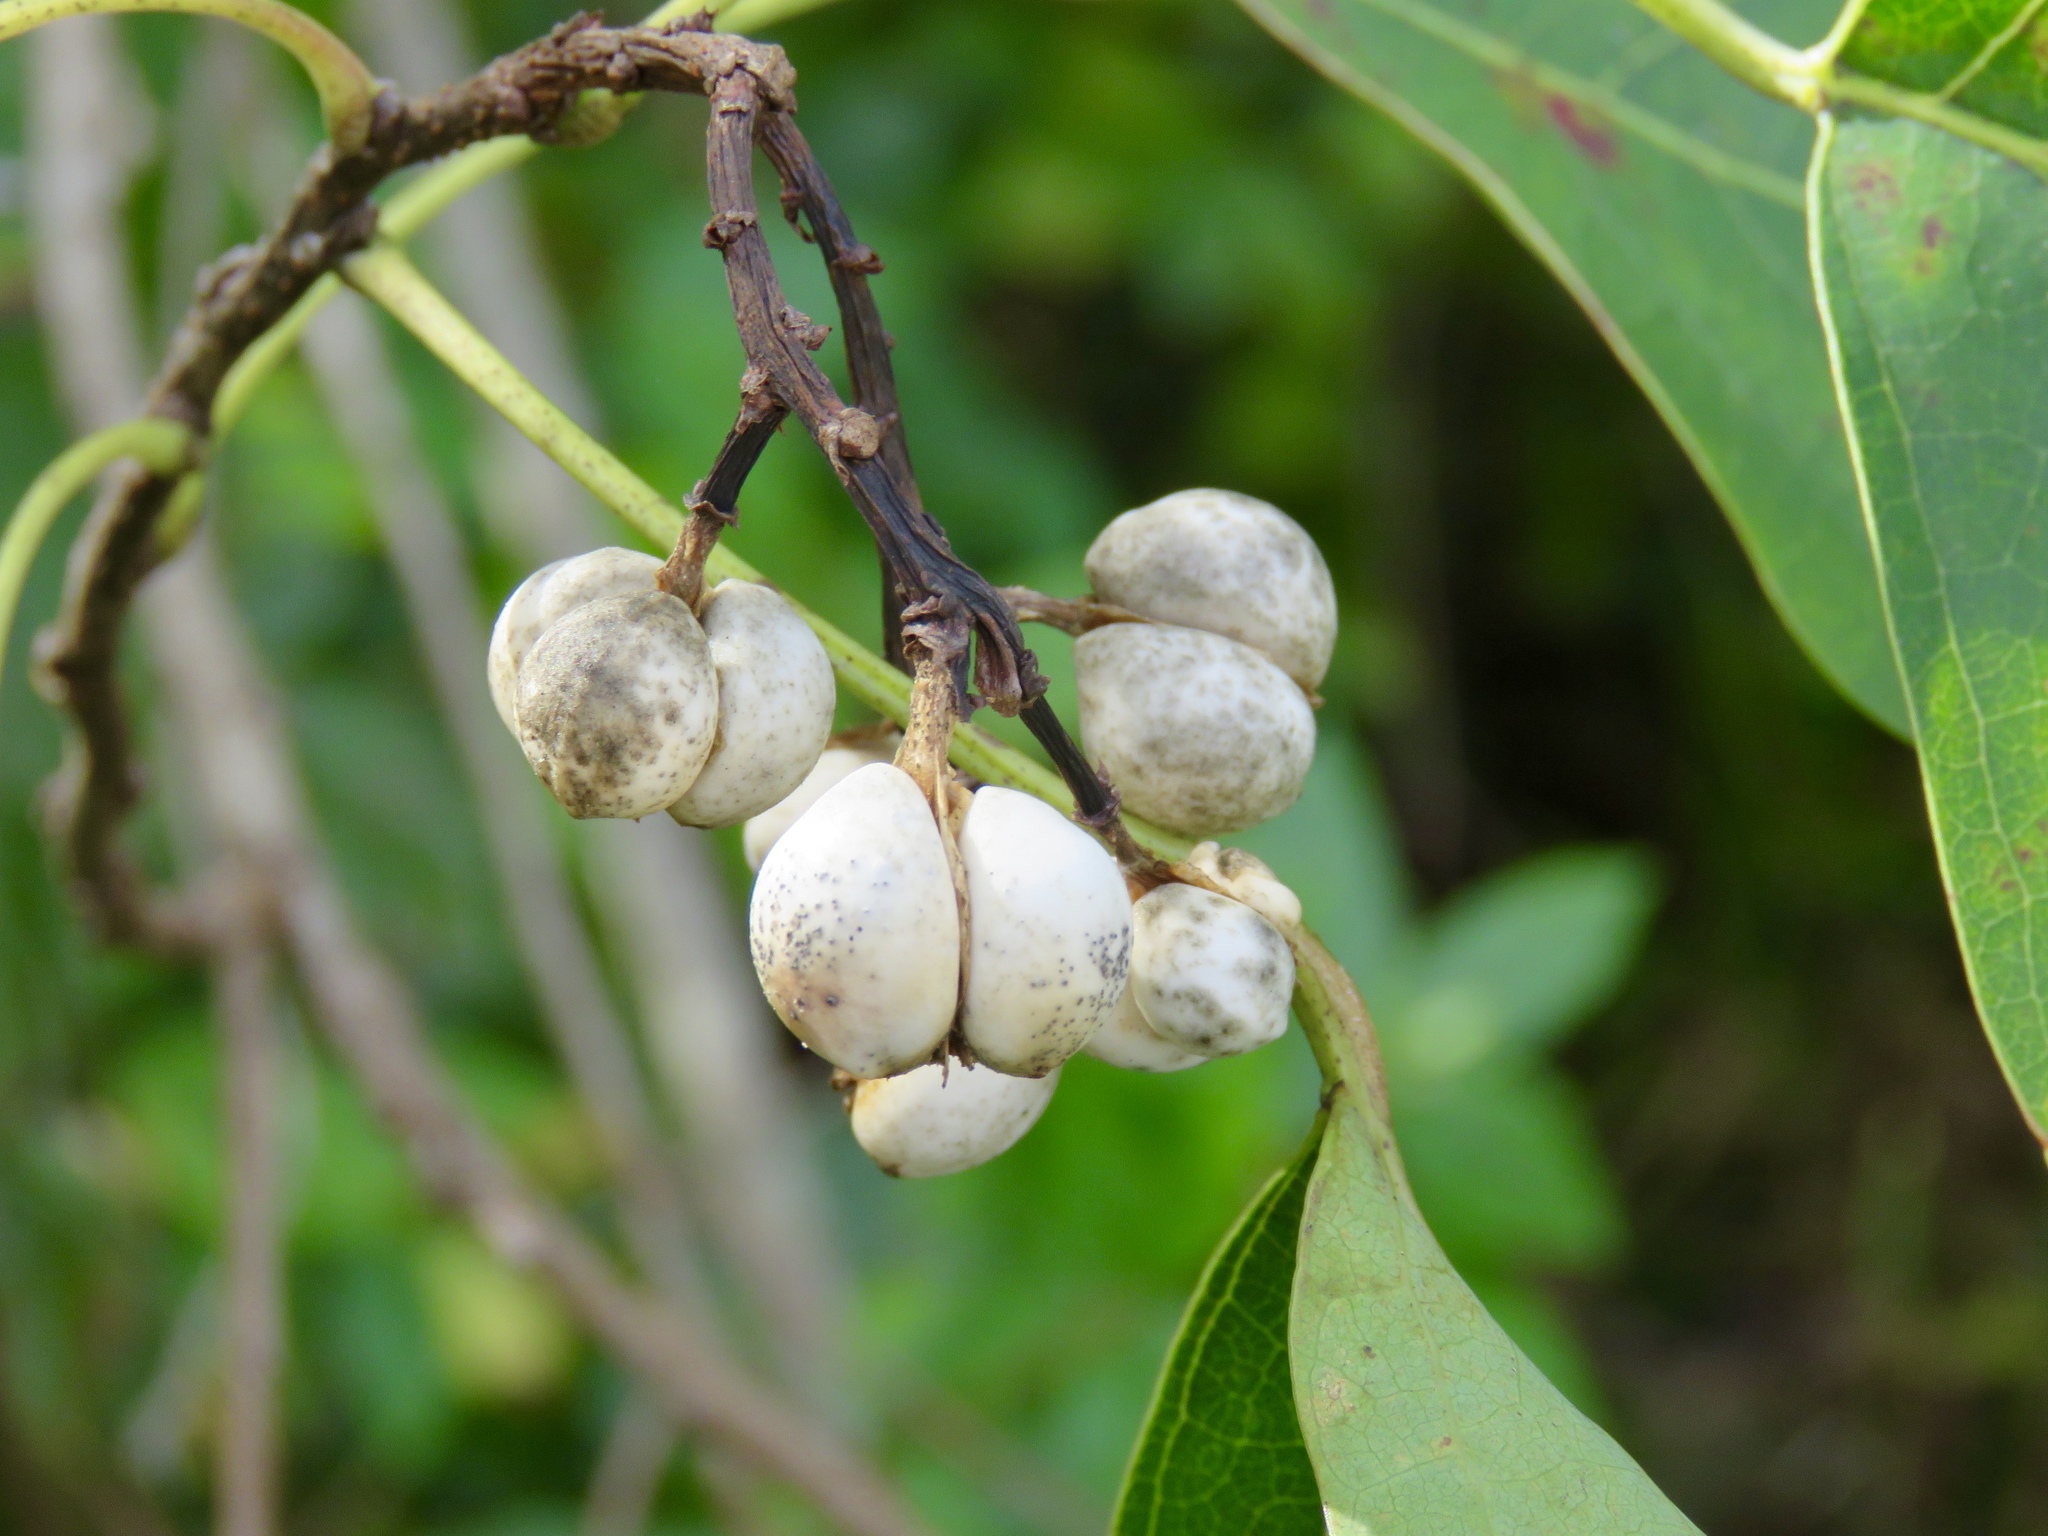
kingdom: Plantae
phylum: Tracheophyta
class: Magnoliopsida
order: Malpighiales
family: Euphorbiaceae
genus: Triadica
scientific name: Triadica sebifera
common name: Chinese tallow
